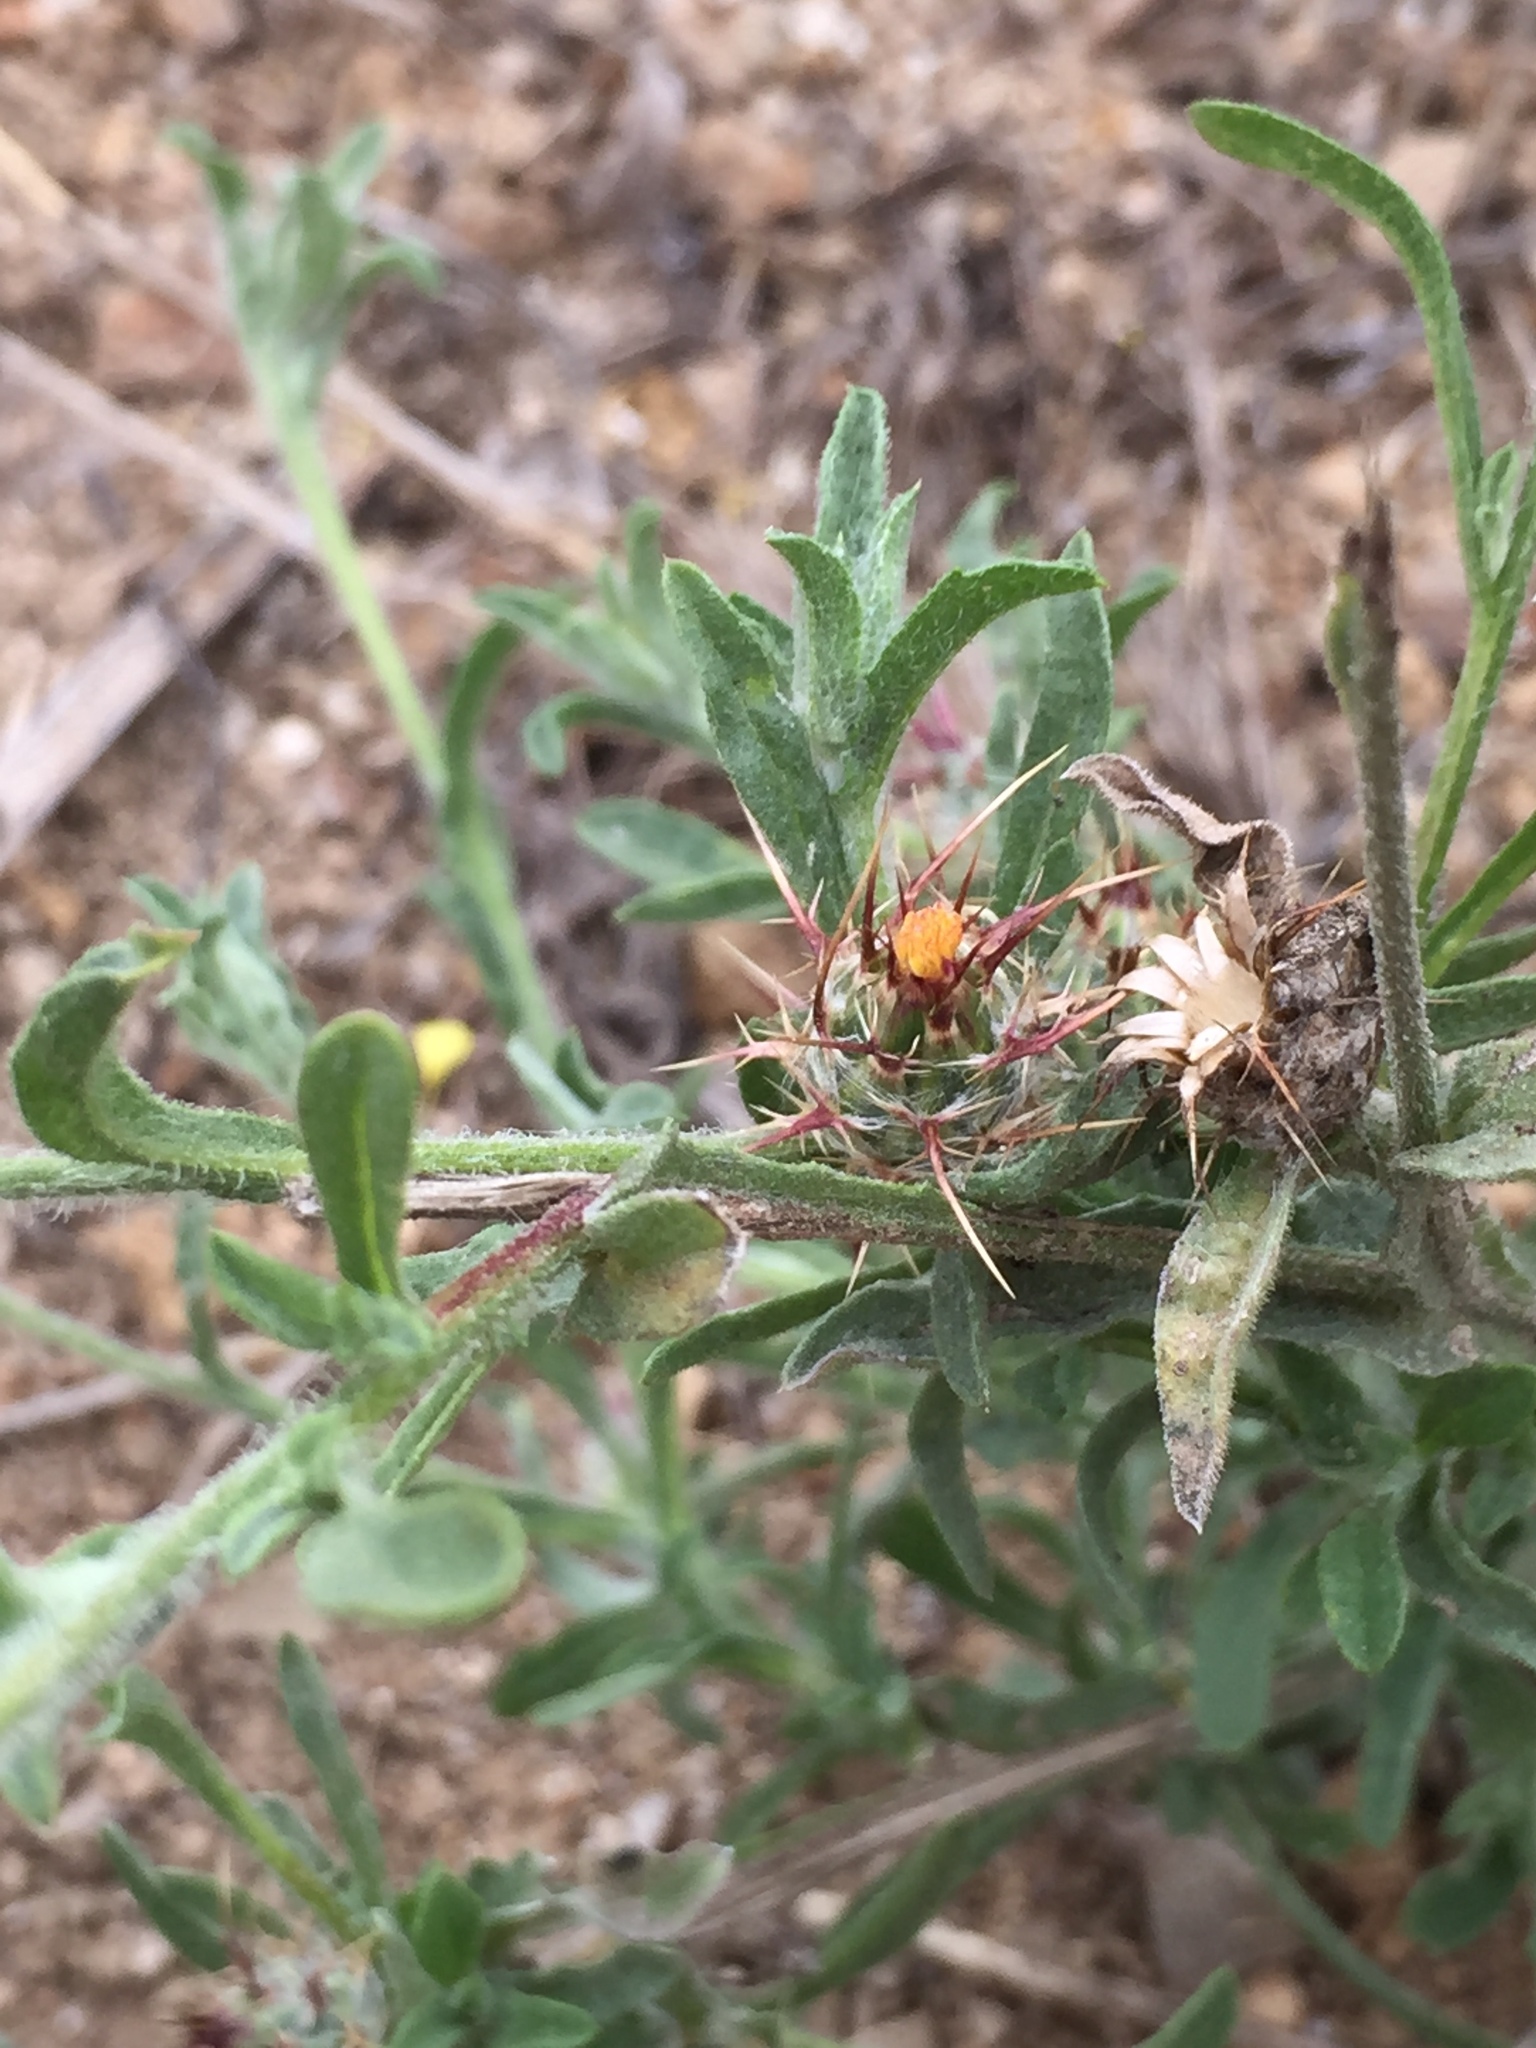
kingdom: Plantae
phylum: Tracheophyta
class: Magnoliopsida
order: Asterales
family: Asteraceae
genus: Centaurea
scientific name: Centaurea melitensis
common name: Maltese star-thistle
